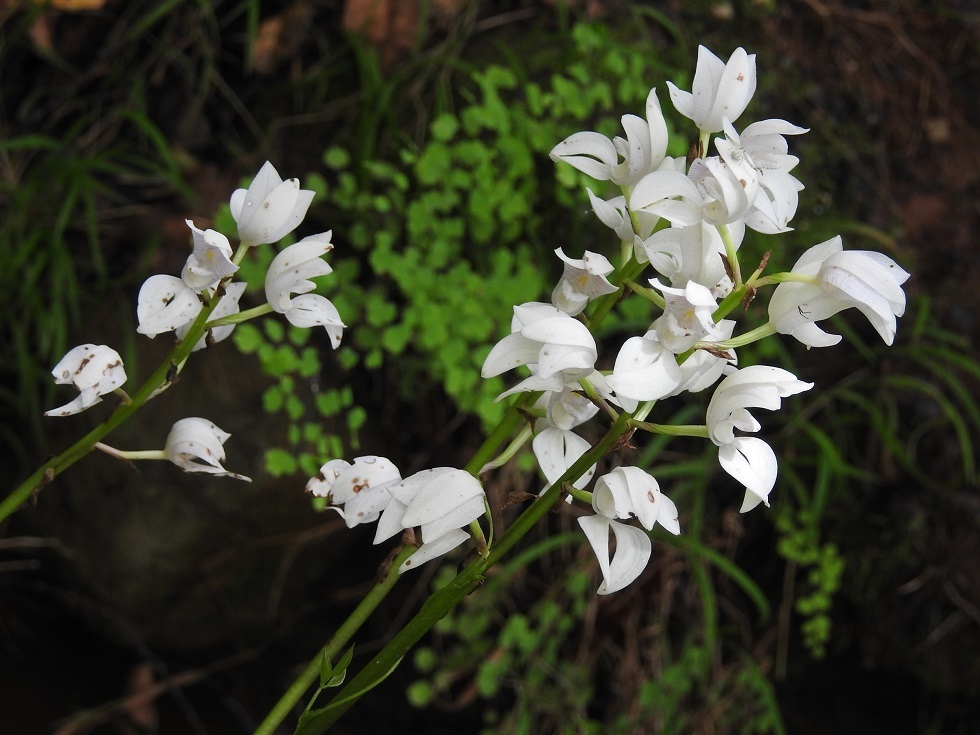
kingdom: Plantae
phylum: Tracheophyta
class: Liliopsida
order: Asparagales
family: Orchidaceae
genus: Govenia
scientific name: Govenia liliacea
